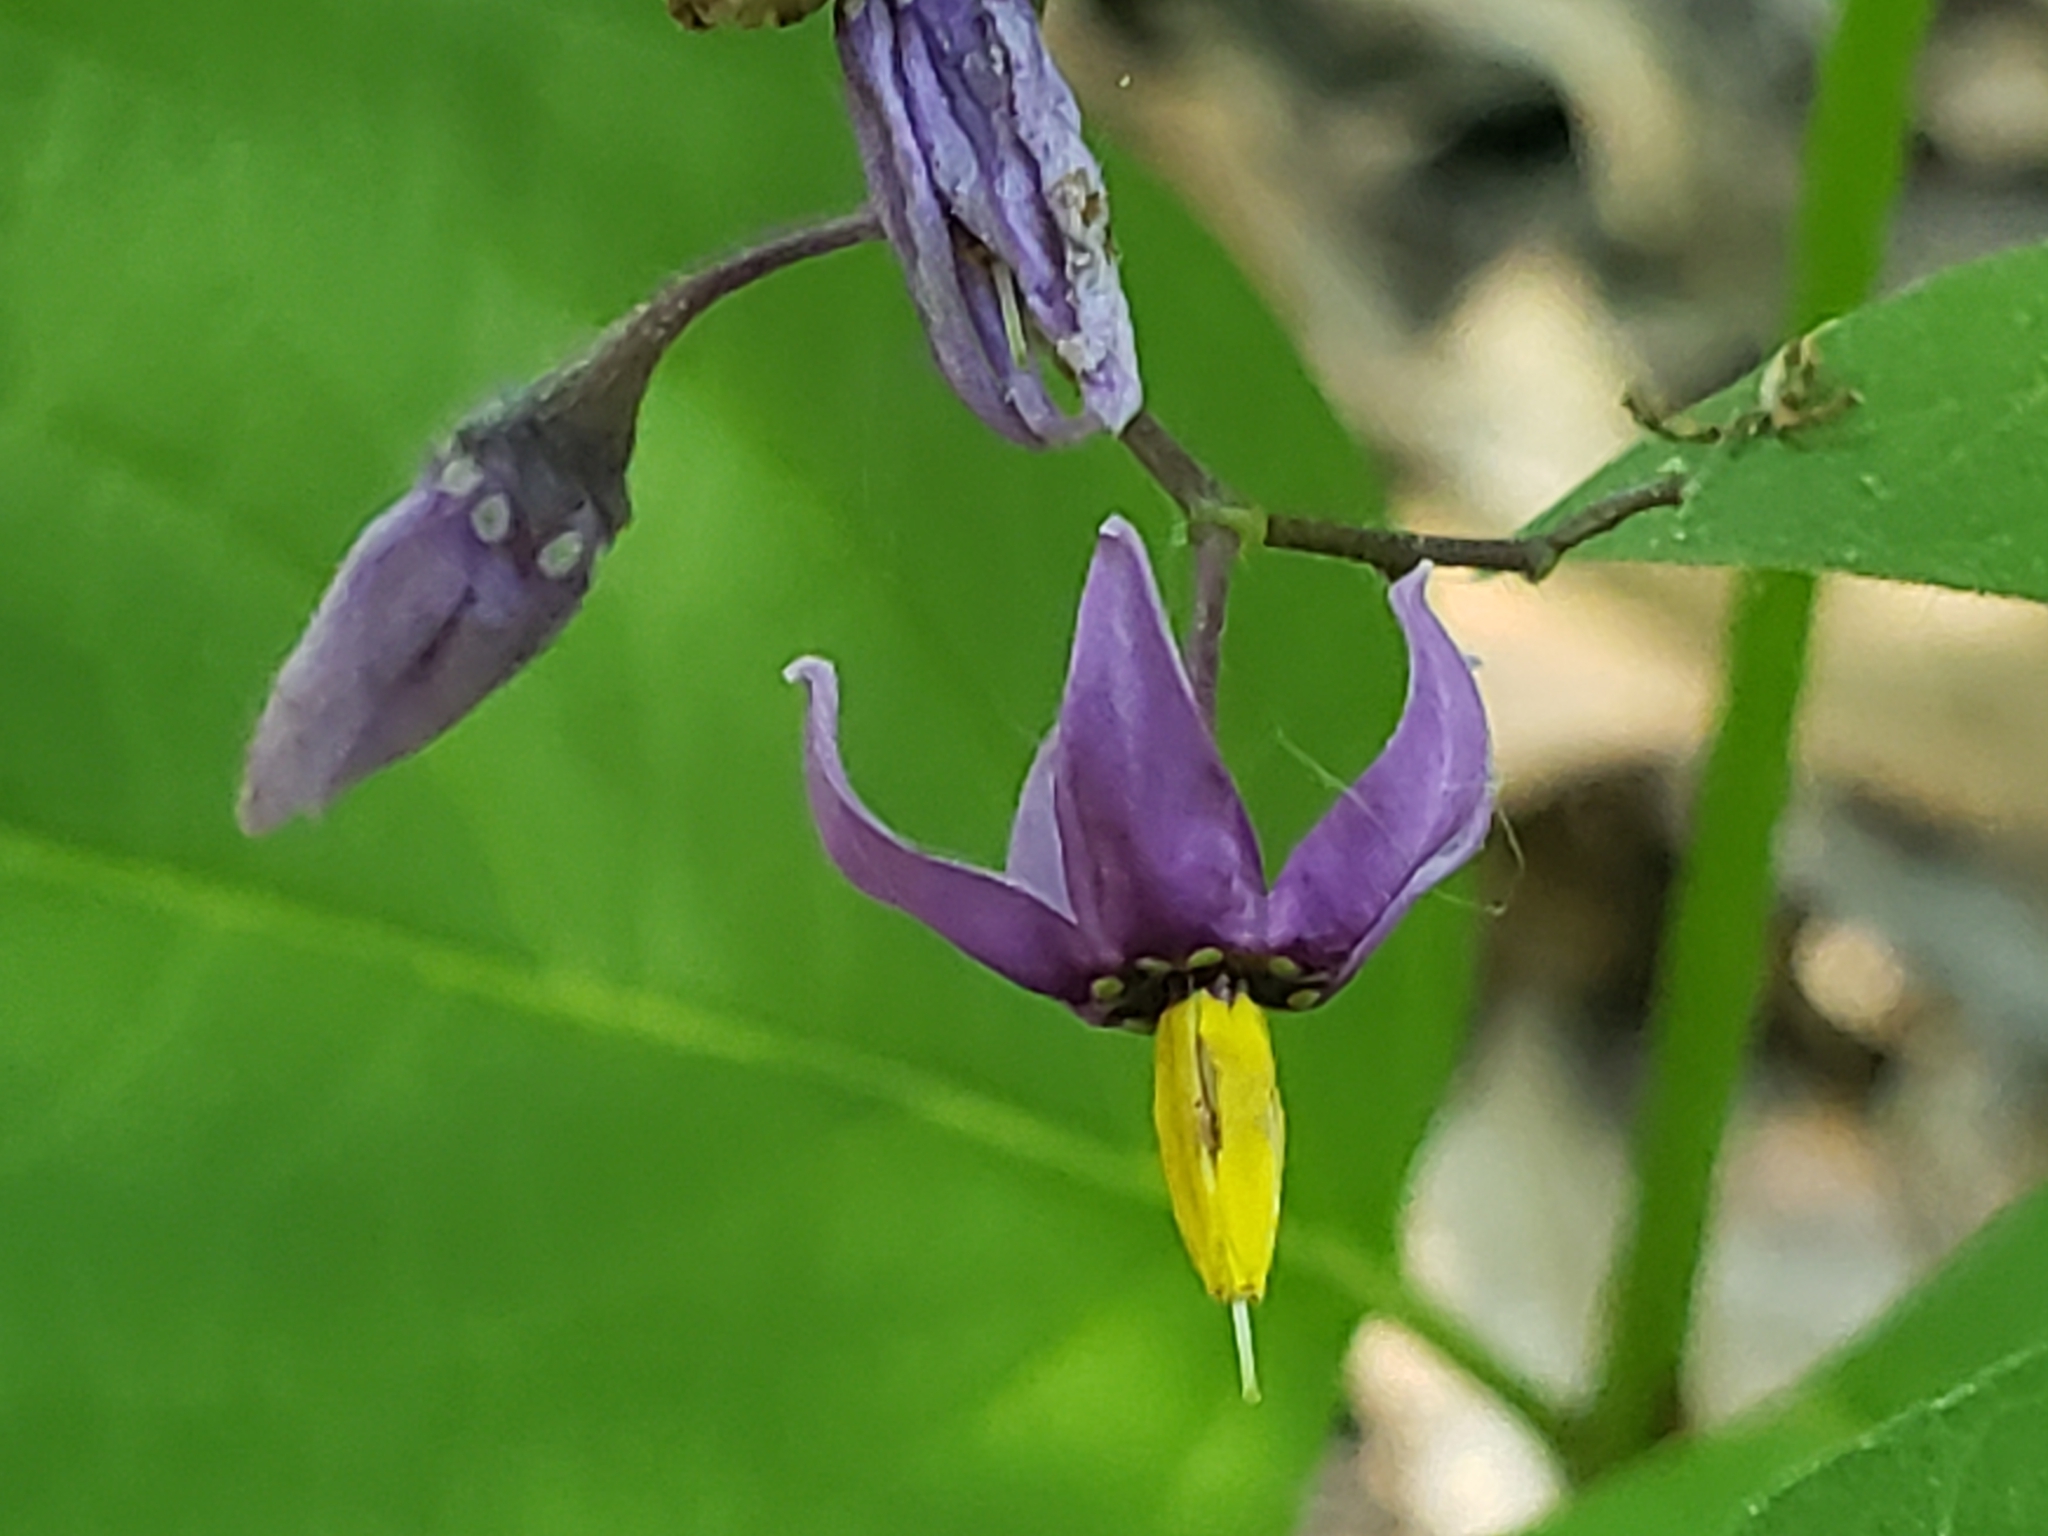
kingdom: Plantae
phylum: Tracheophyta
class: Magnoliopsida
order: Solanales
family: Solanaceae
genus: Solanum
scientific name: Solanum dulcamara
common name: Climbing nightshade
